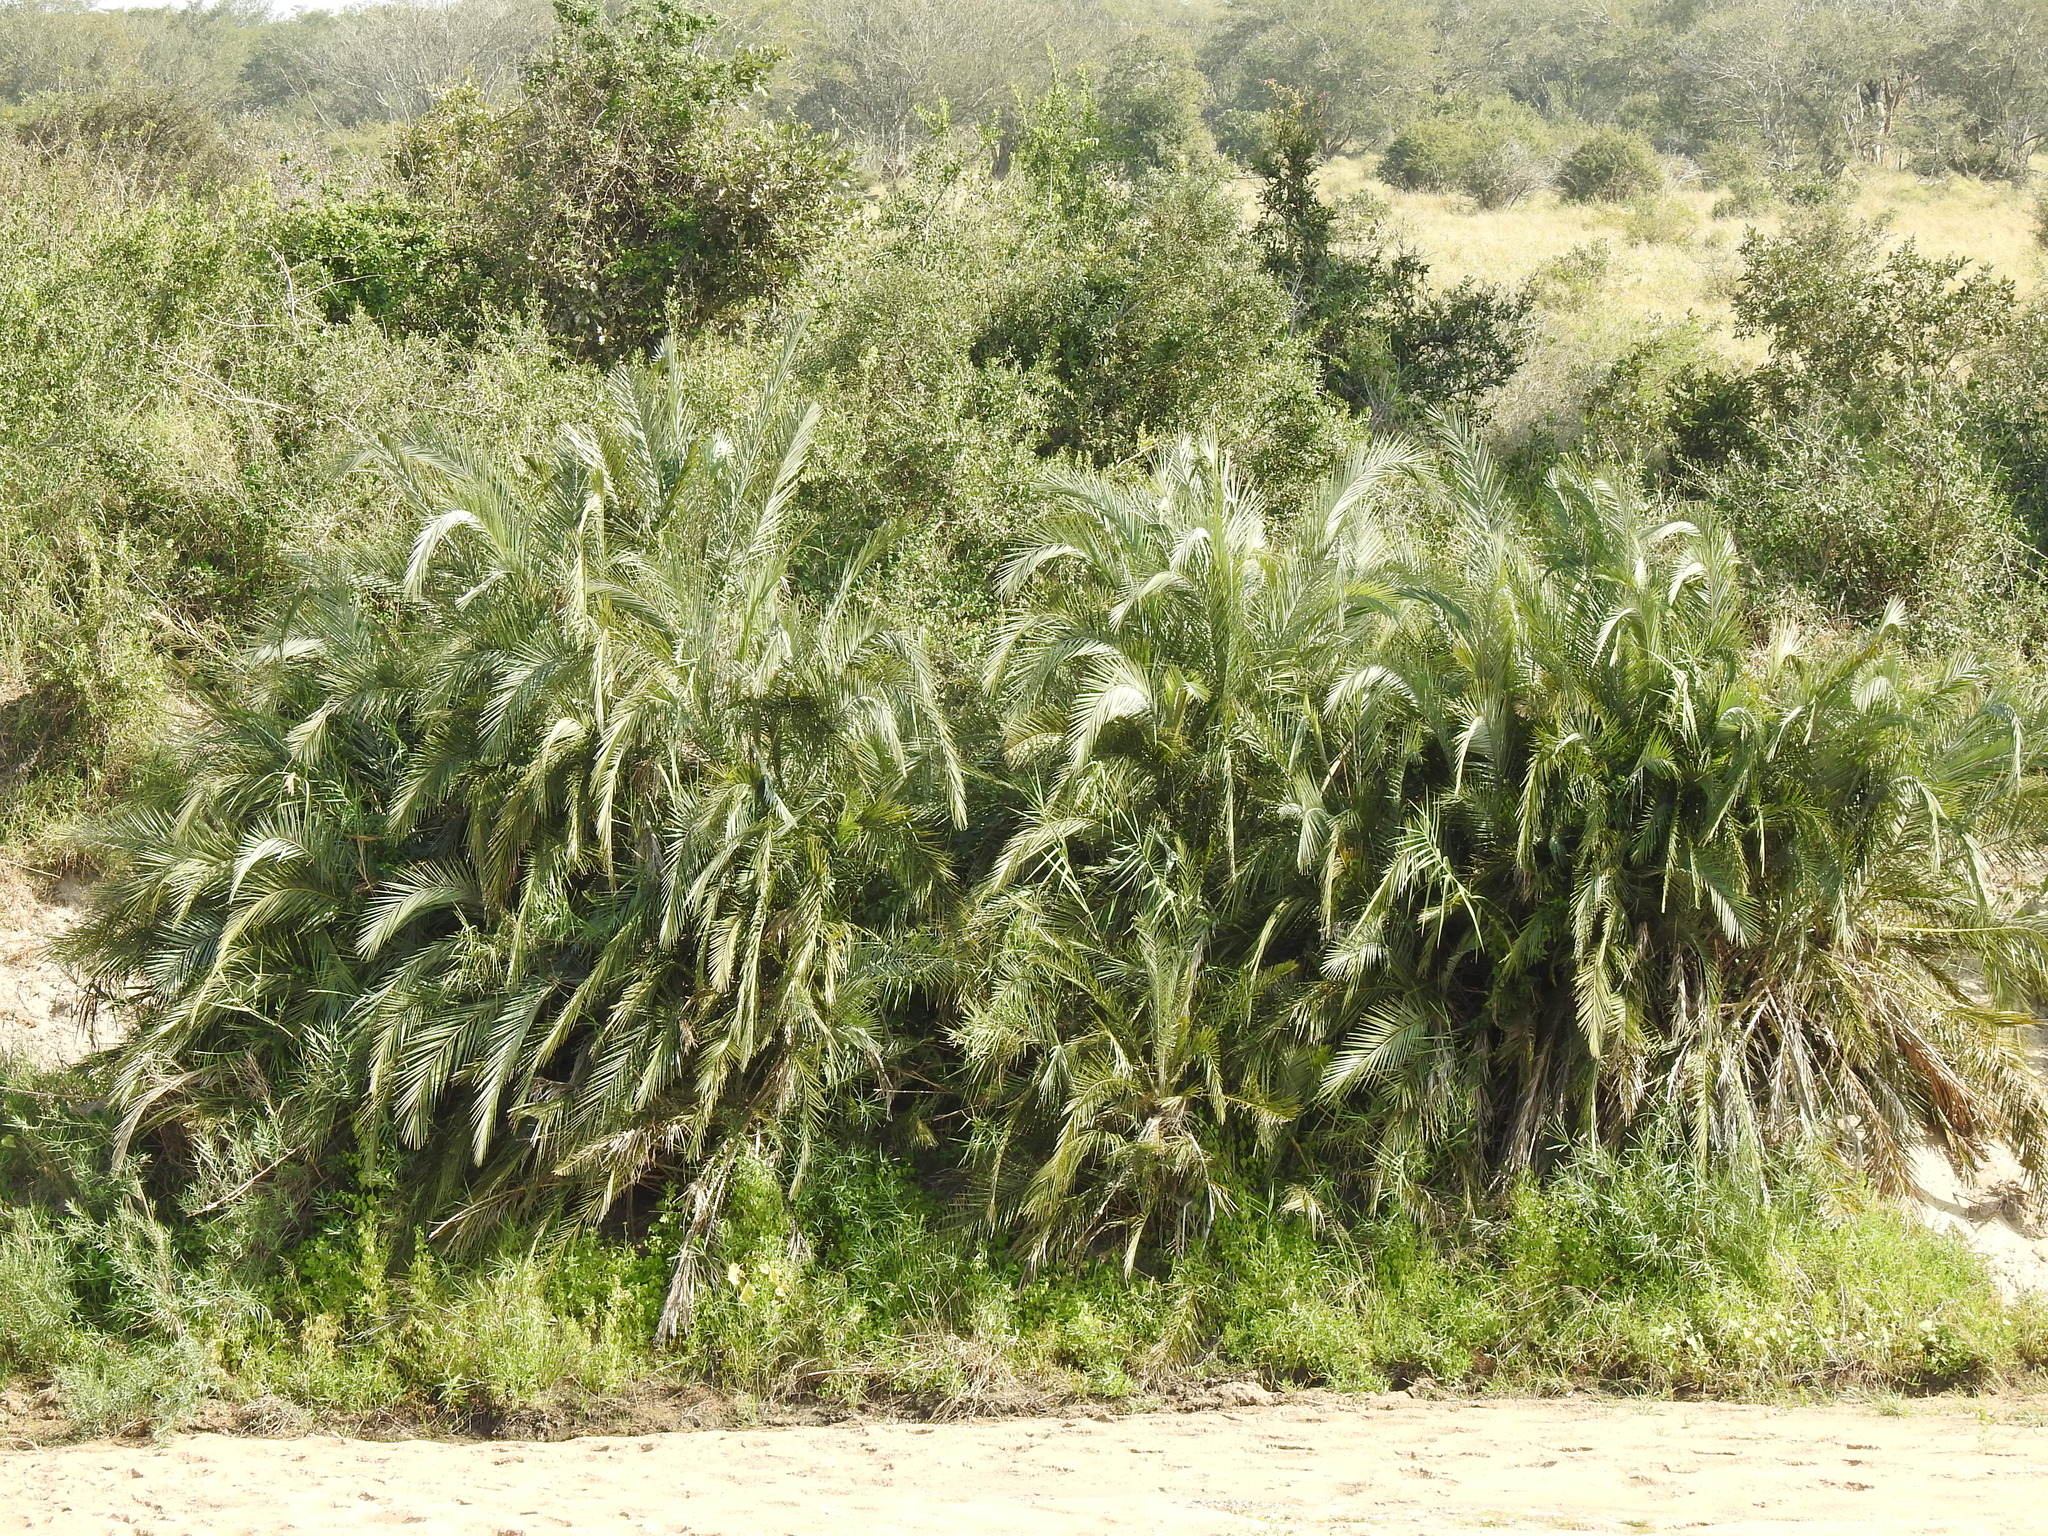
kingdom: Plantae
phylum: Tracheophyta
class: Liliopsida
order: Arecales
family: Arecaceae
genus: Phoenix
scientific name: Phoenix reclinata
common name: Senegal date palm
